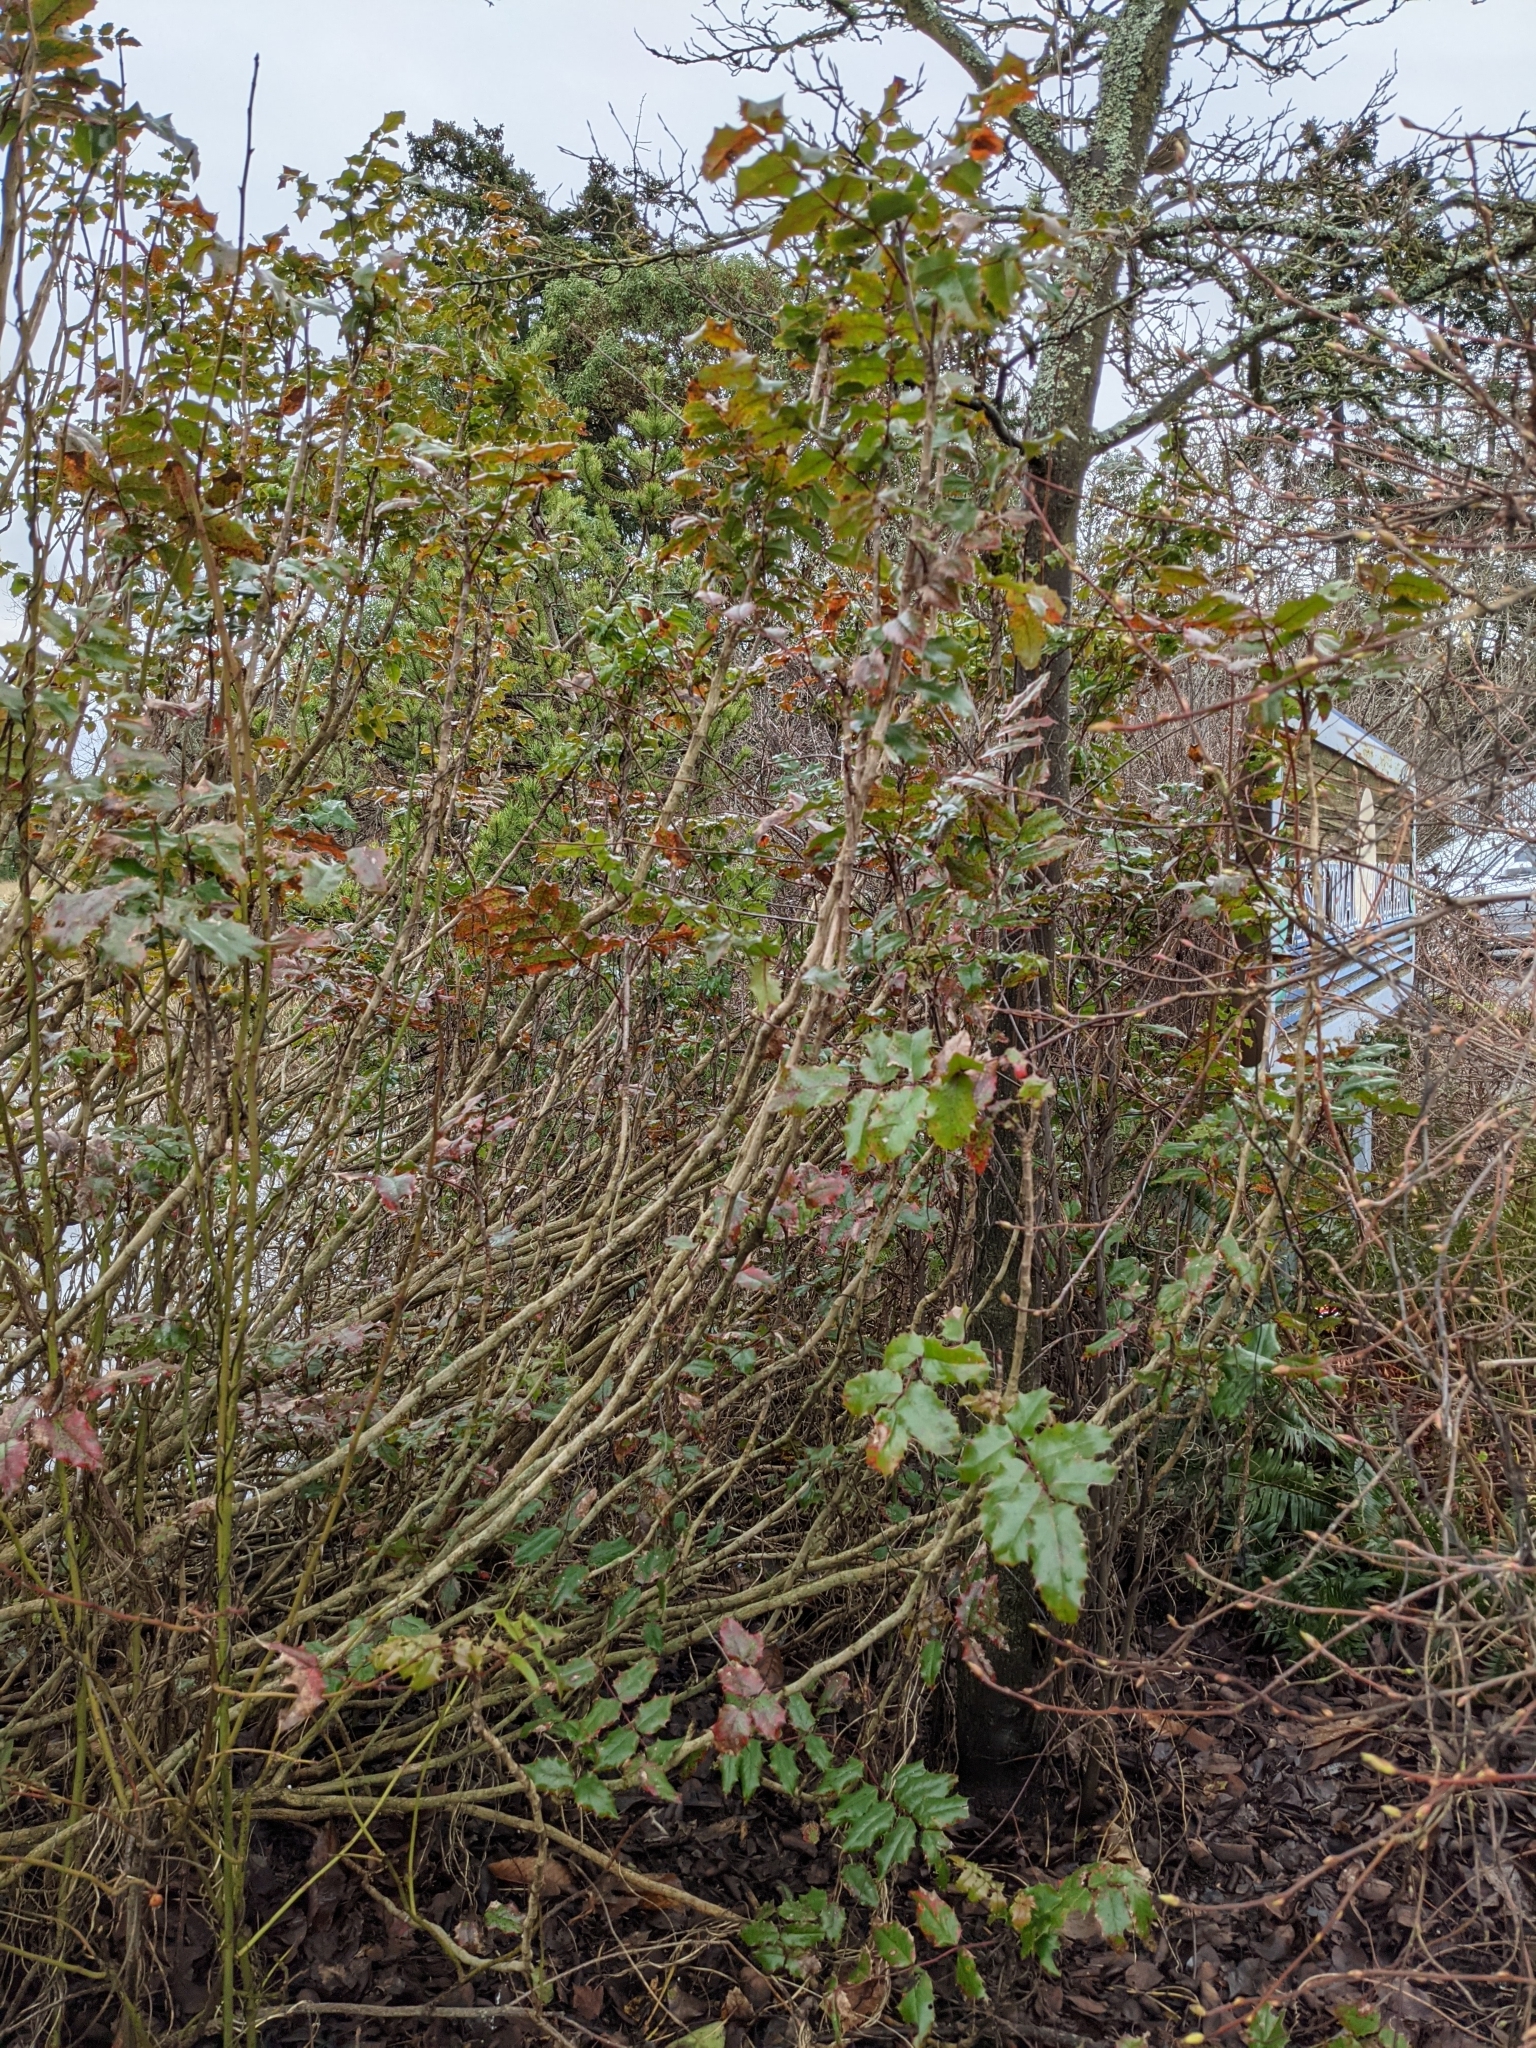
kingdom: Plantae
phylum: Tracheophyta
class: Magnoliopsida
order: Ranunculales
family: Berberidaceae
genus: Mahonia
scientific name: Mahonia aquifolium
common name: Oregon-grape
